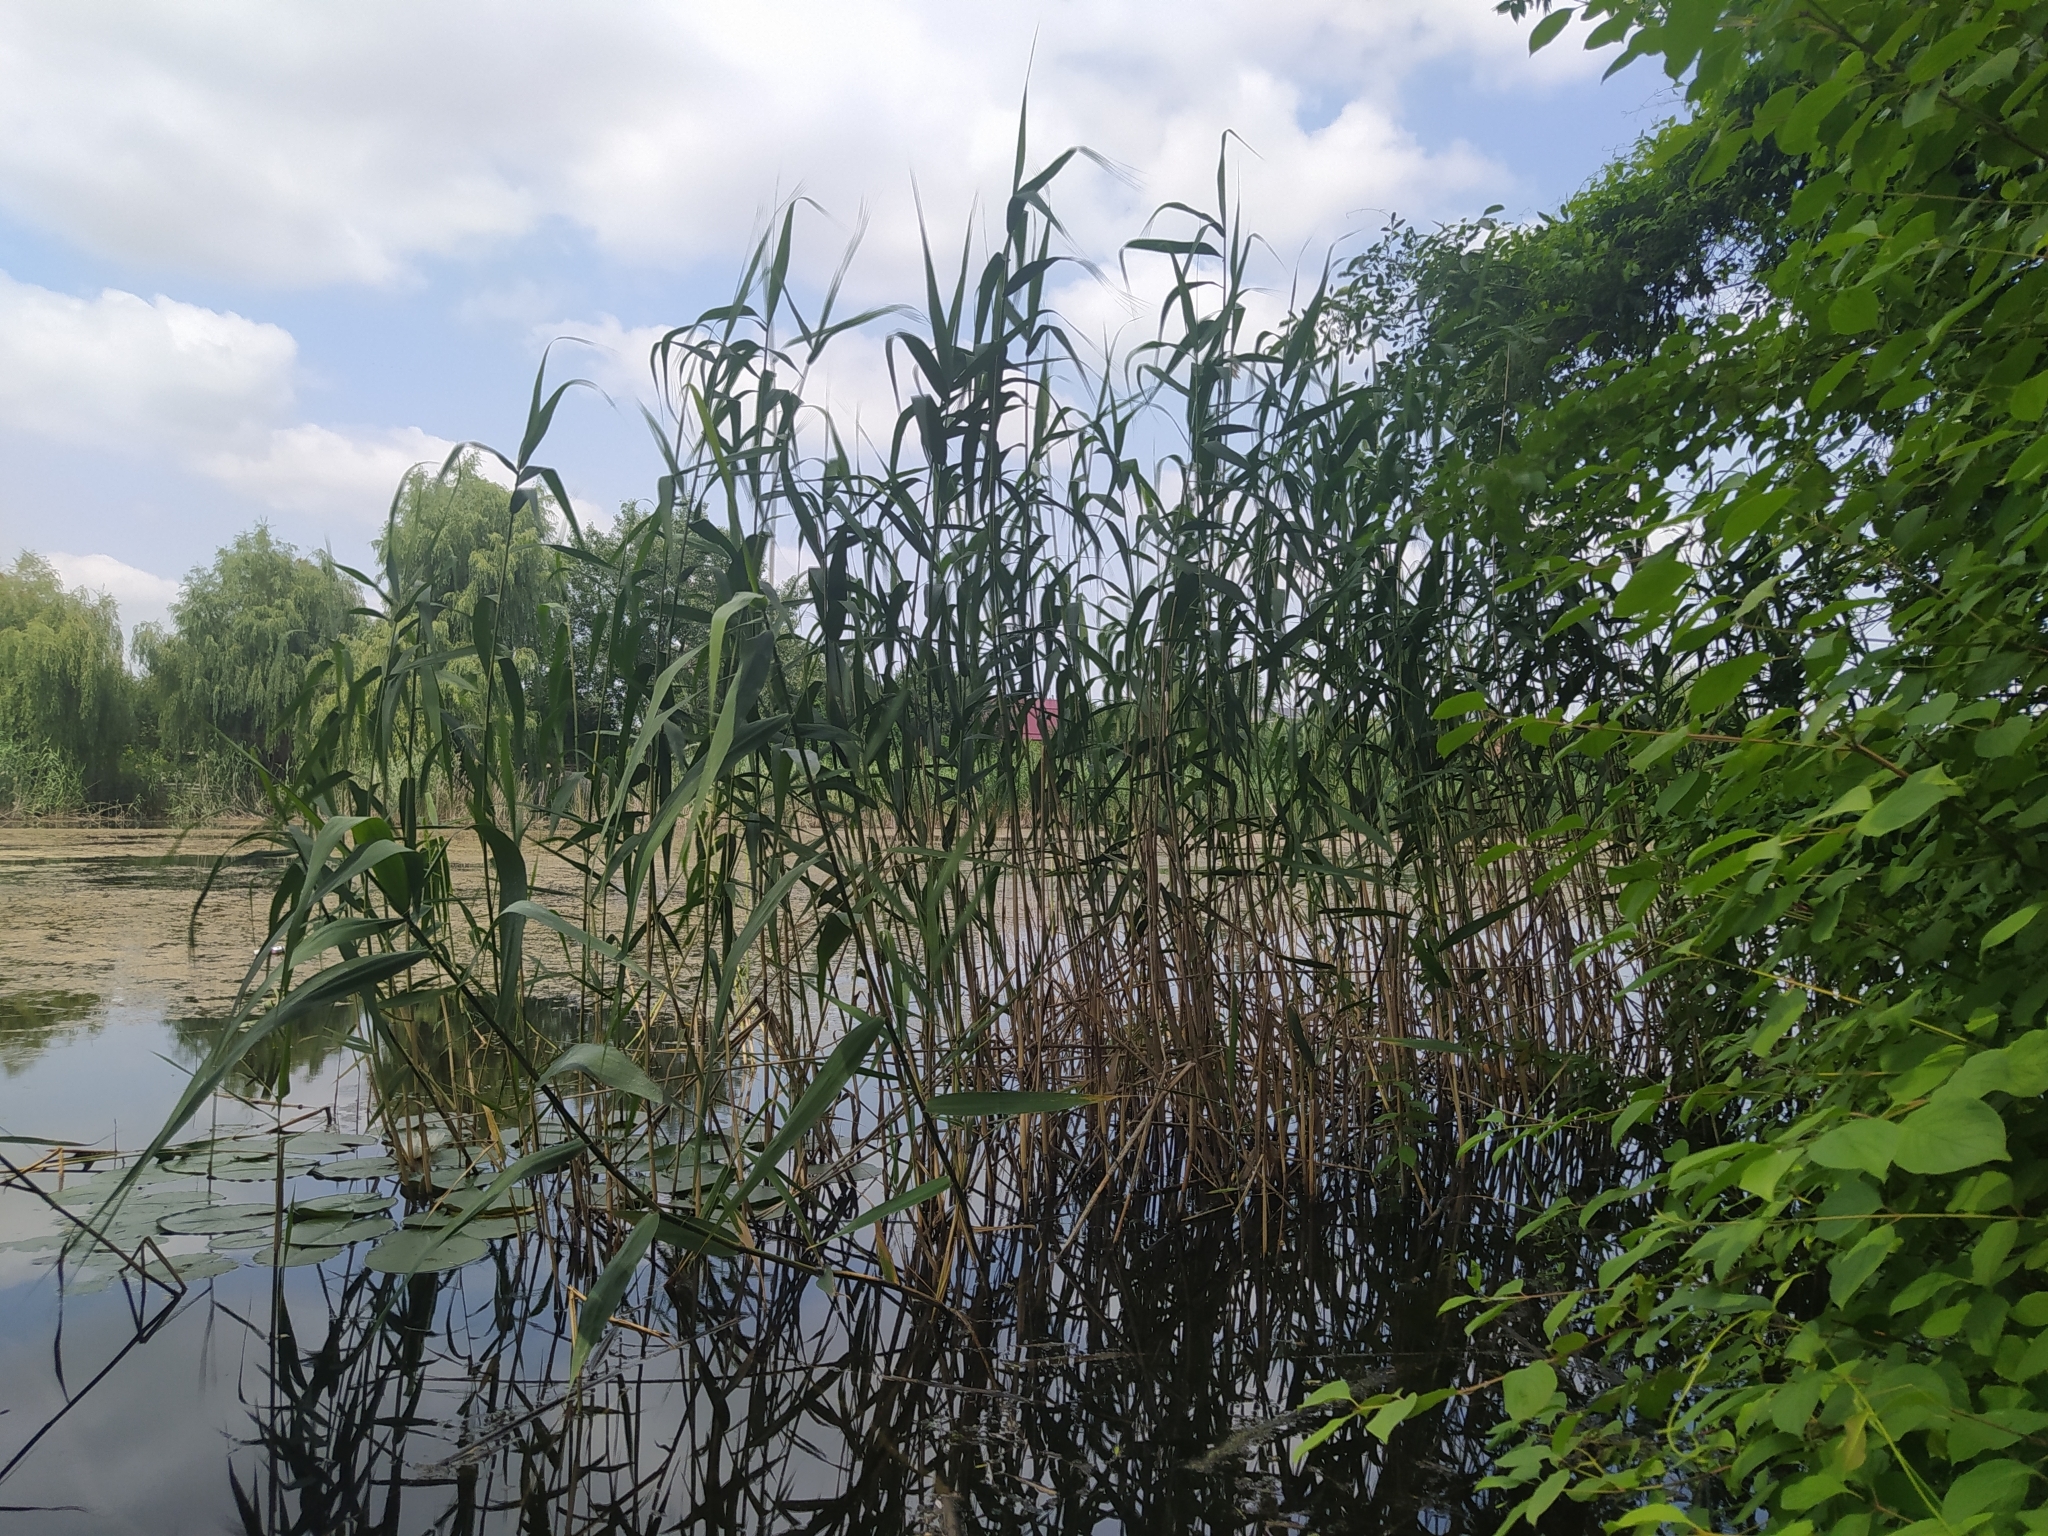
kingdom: Plantae
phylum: Tracheophyta
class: Liliopsida
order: Poales
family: Poaceae
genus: Phragmites
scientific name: Phragmites australis
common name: Common reed
